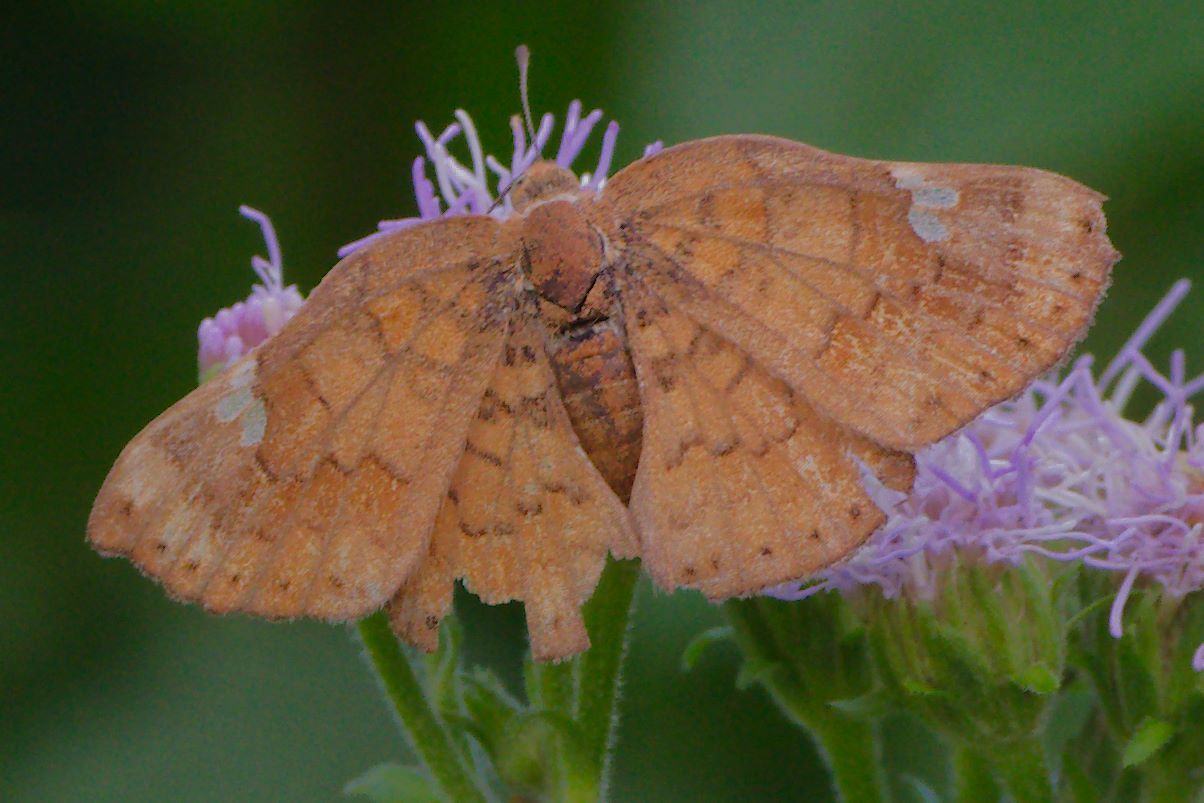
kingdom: Animalia
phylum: Arthropoda
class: Insecta
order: Lepidoptera
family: Riodinidae
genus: Curvie
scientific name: Curvie emesia
